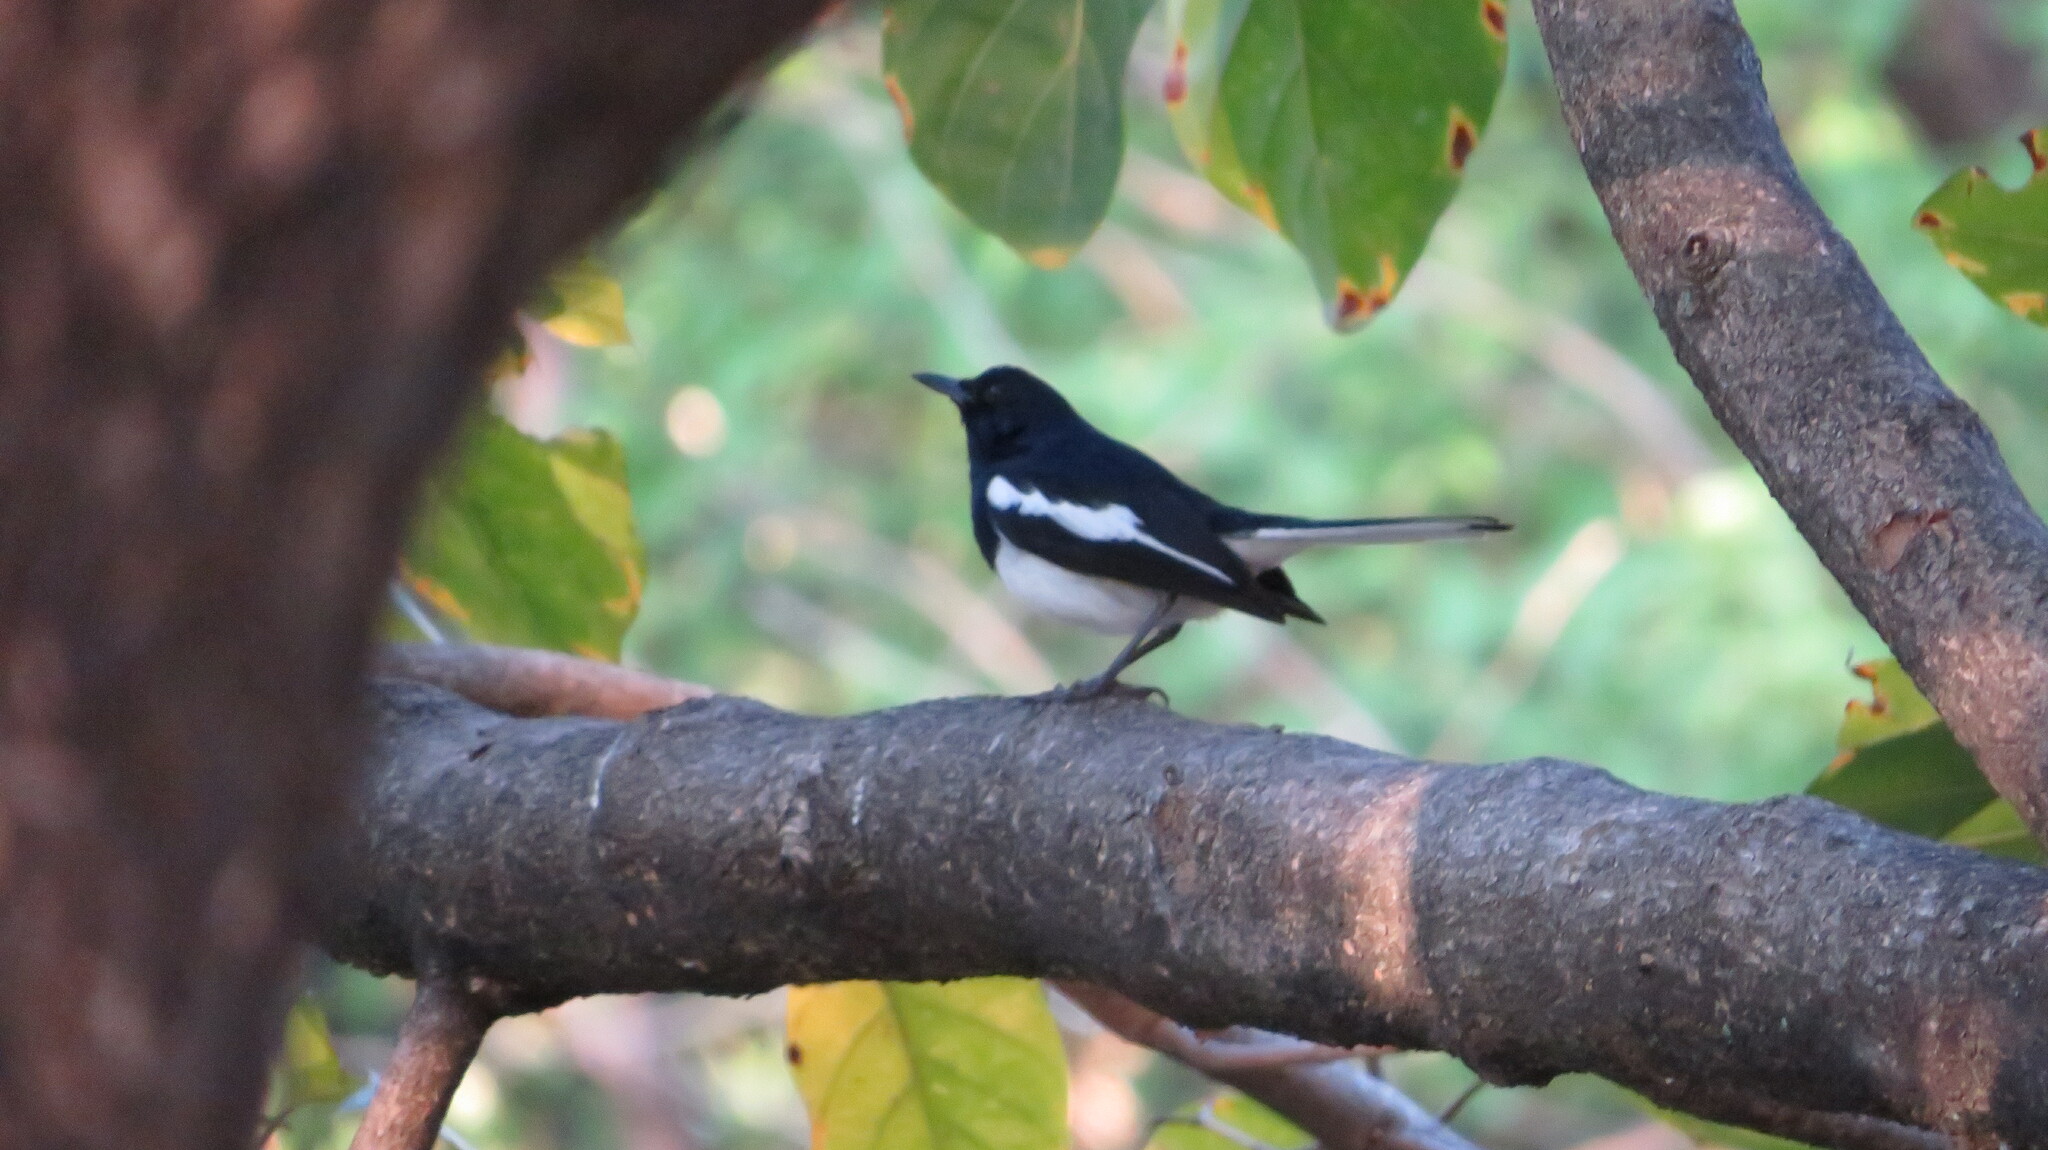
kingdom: Animalia
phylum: Chordata
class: Aves
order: Passeriformes
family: Muscicapidae
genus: Copsychus
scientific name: Copsychus saularis
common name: Oriental magpie-robin
